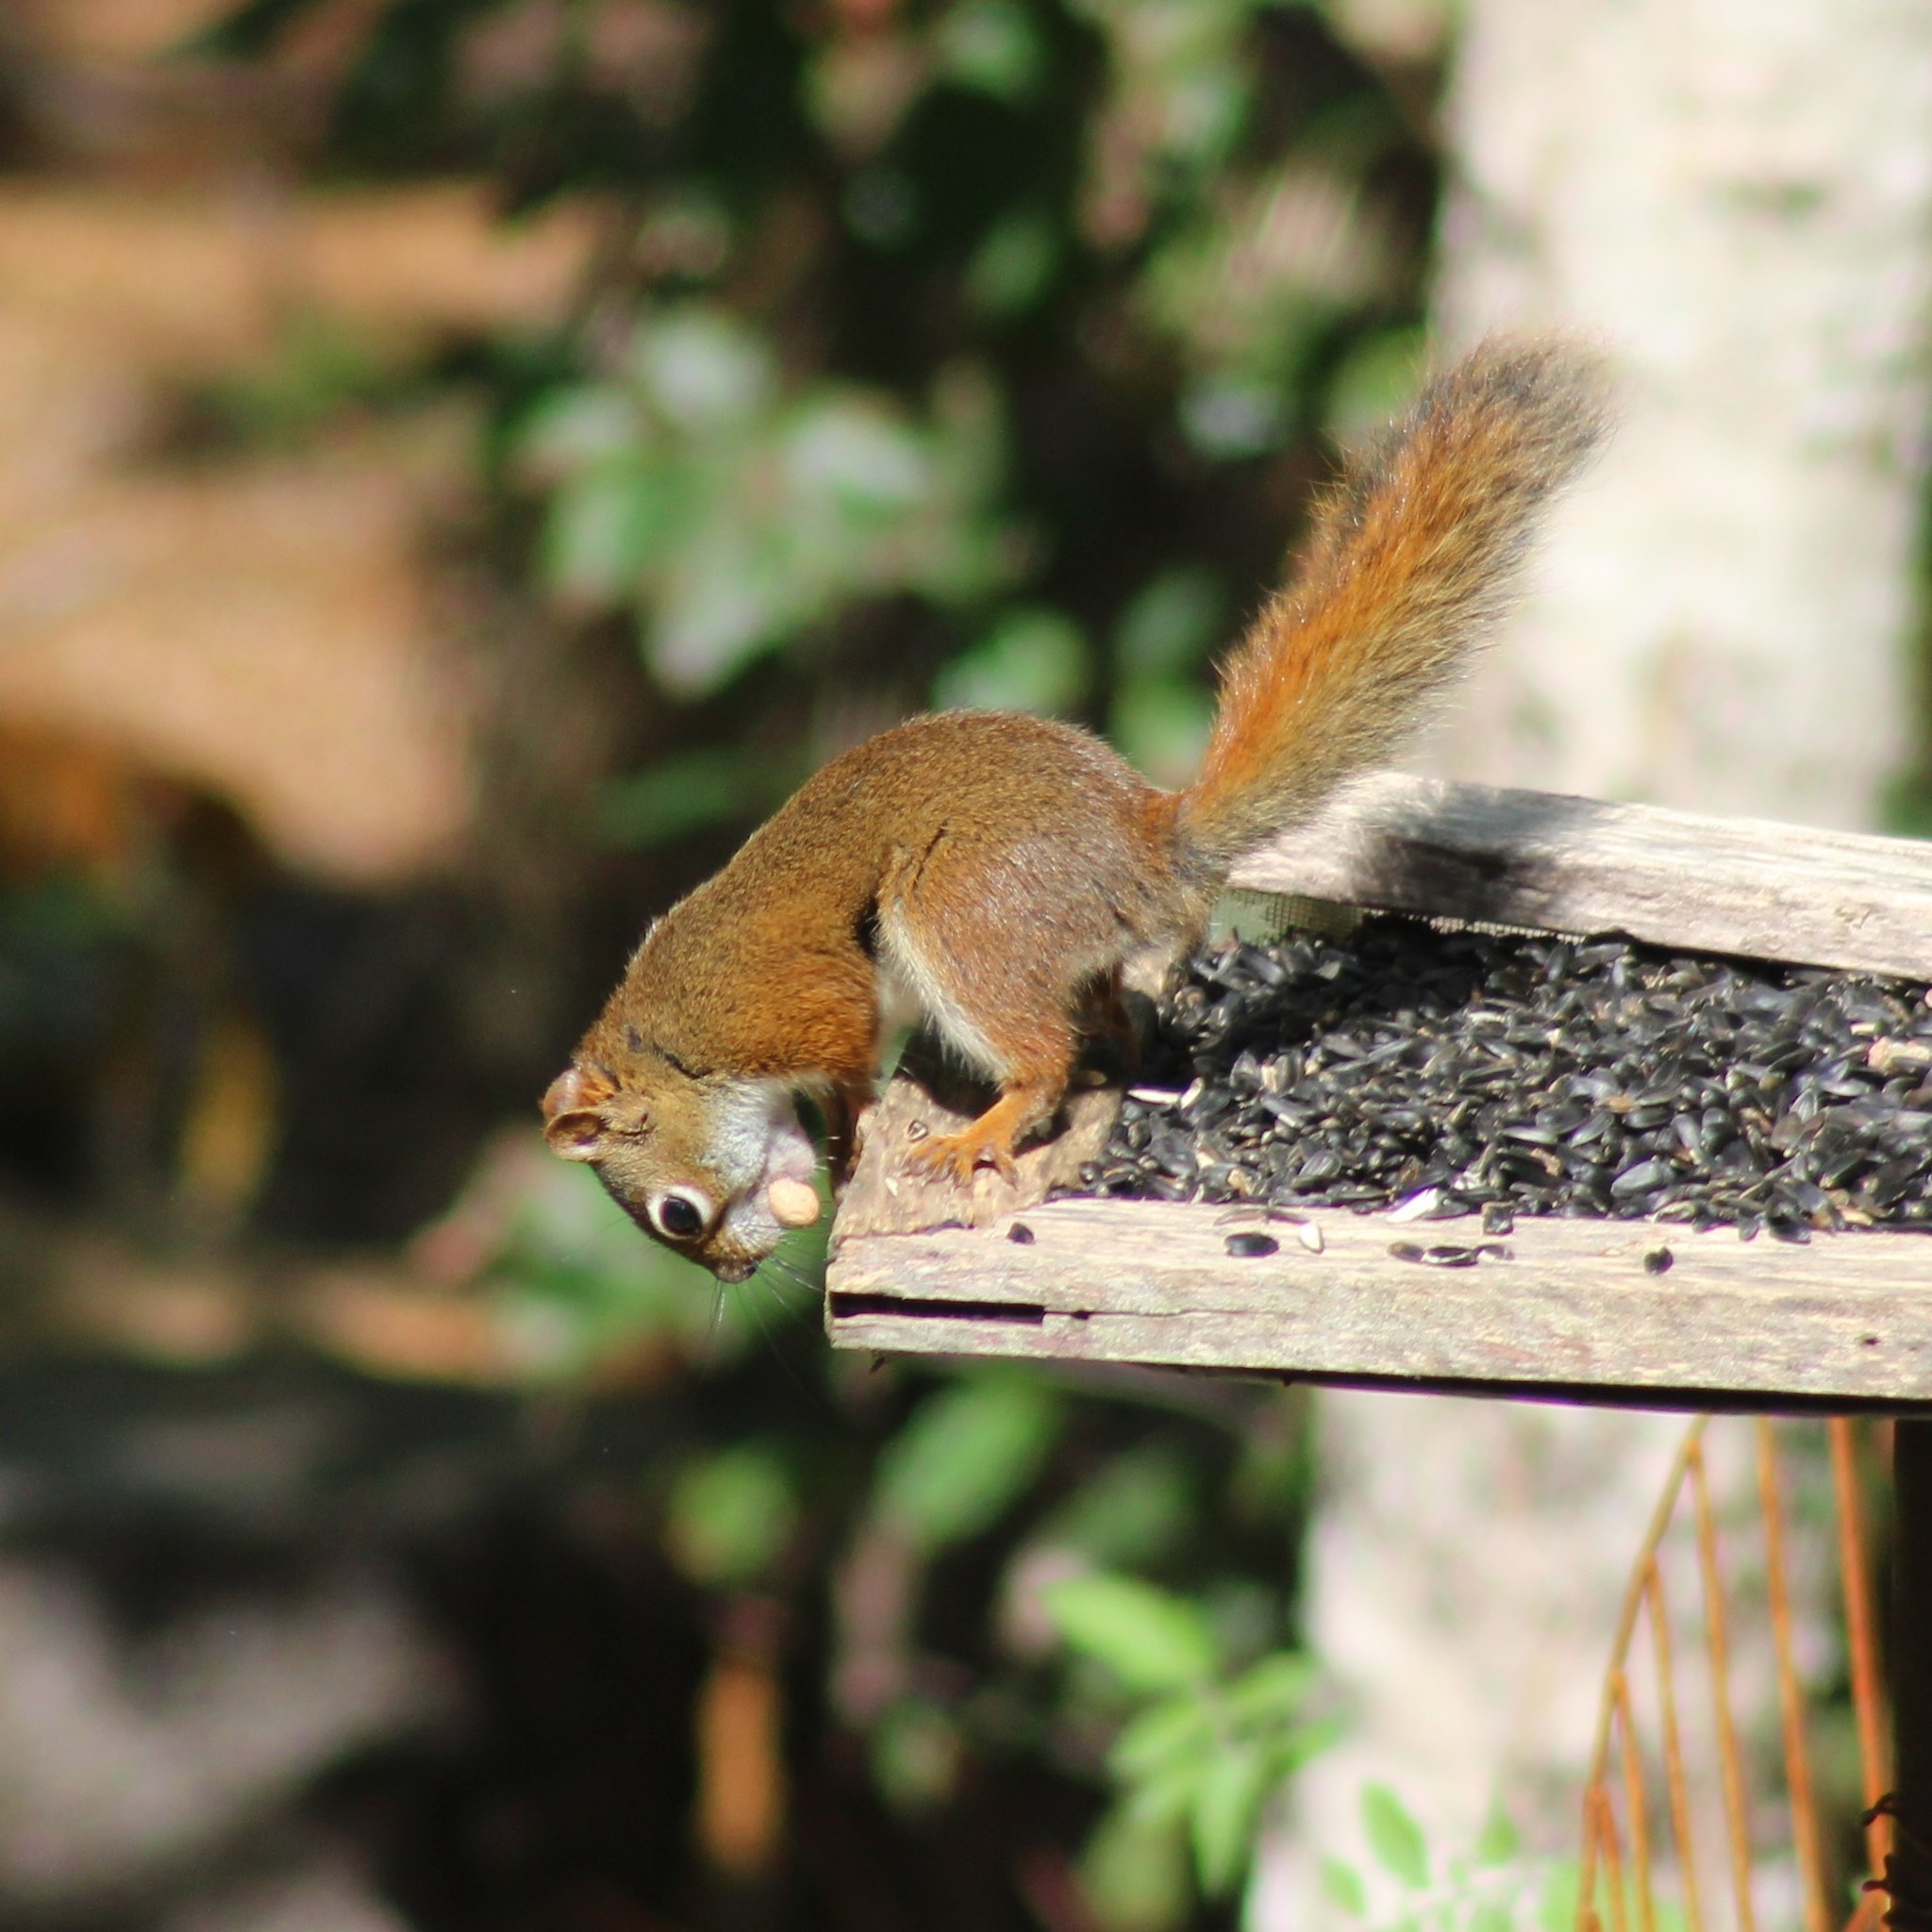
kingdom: Animalia
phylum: Chordata
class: Mammalia
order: Rodentia
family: Sciuridae
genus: Tamiasciurus
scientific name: Tamiasciurus hudsonicus
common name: Red squirrel
